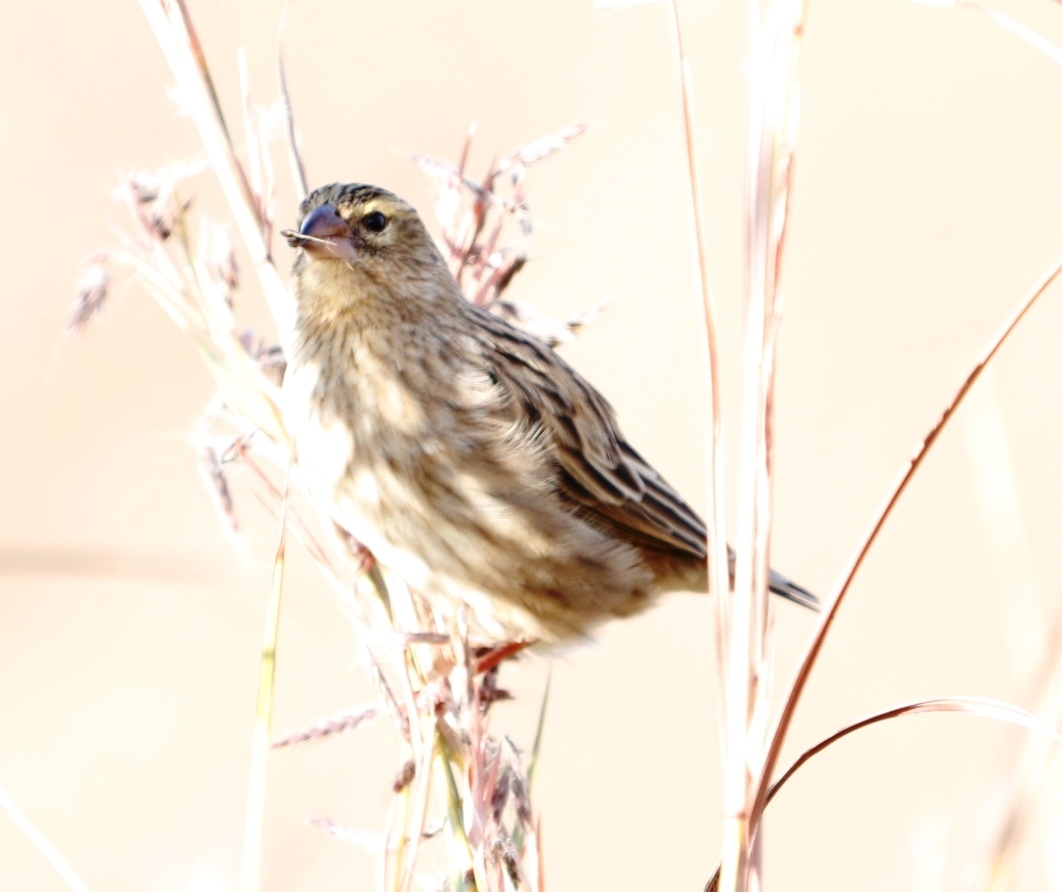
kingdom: Animalia
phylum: Chordata
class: Aves
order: Passeriformes
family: Ploceidae
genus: Euplectes
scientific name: Euplectes orix
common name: Southern red bishop
